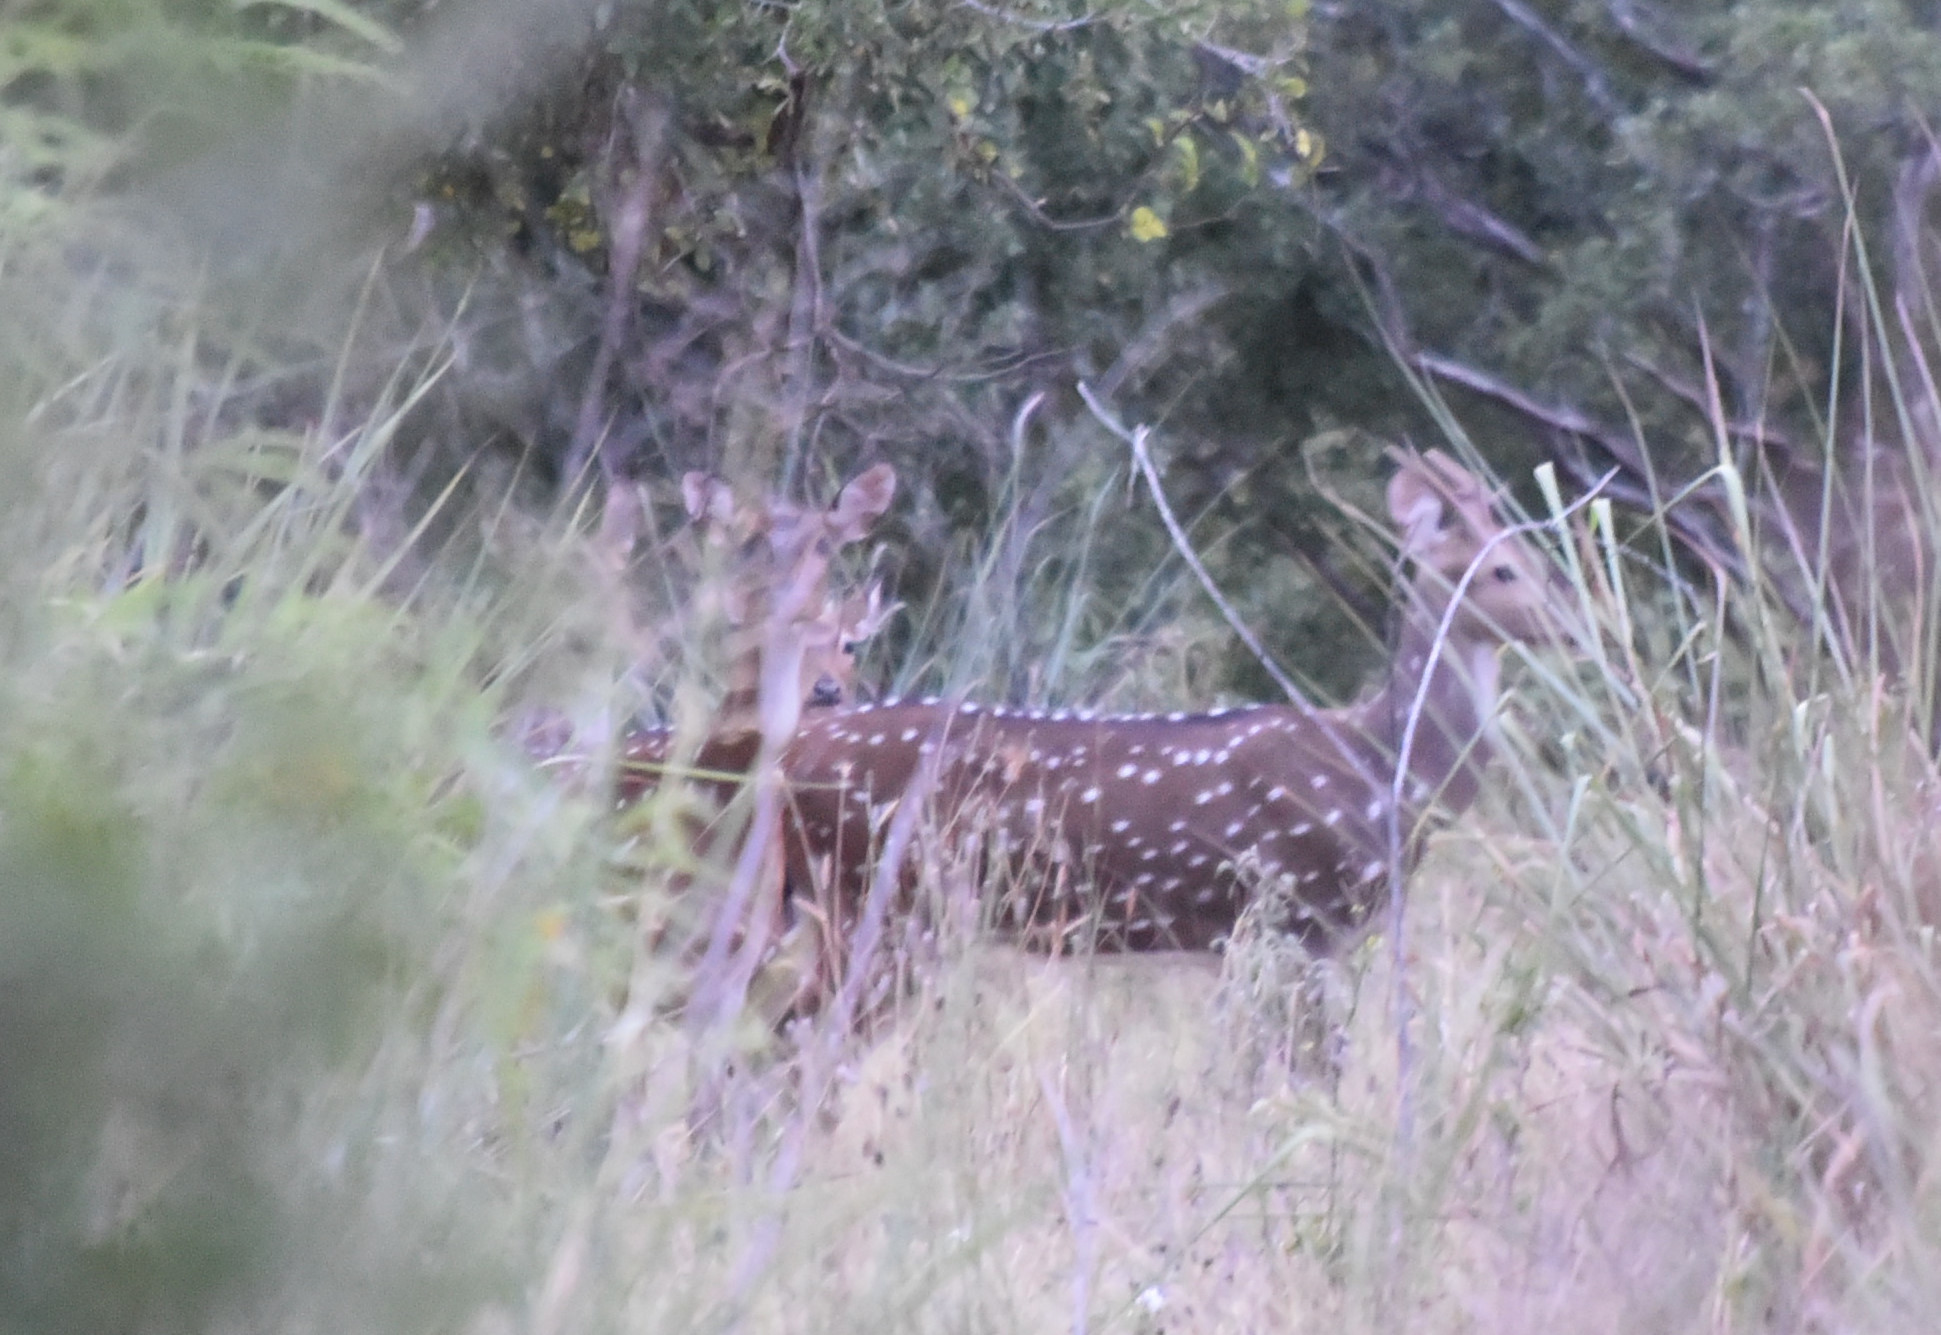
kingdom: Animalia
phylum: Chordata
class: Mammalia
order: Artiodactyla
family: Cervidae
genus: Axis
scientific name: Axis axis
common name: Chital
